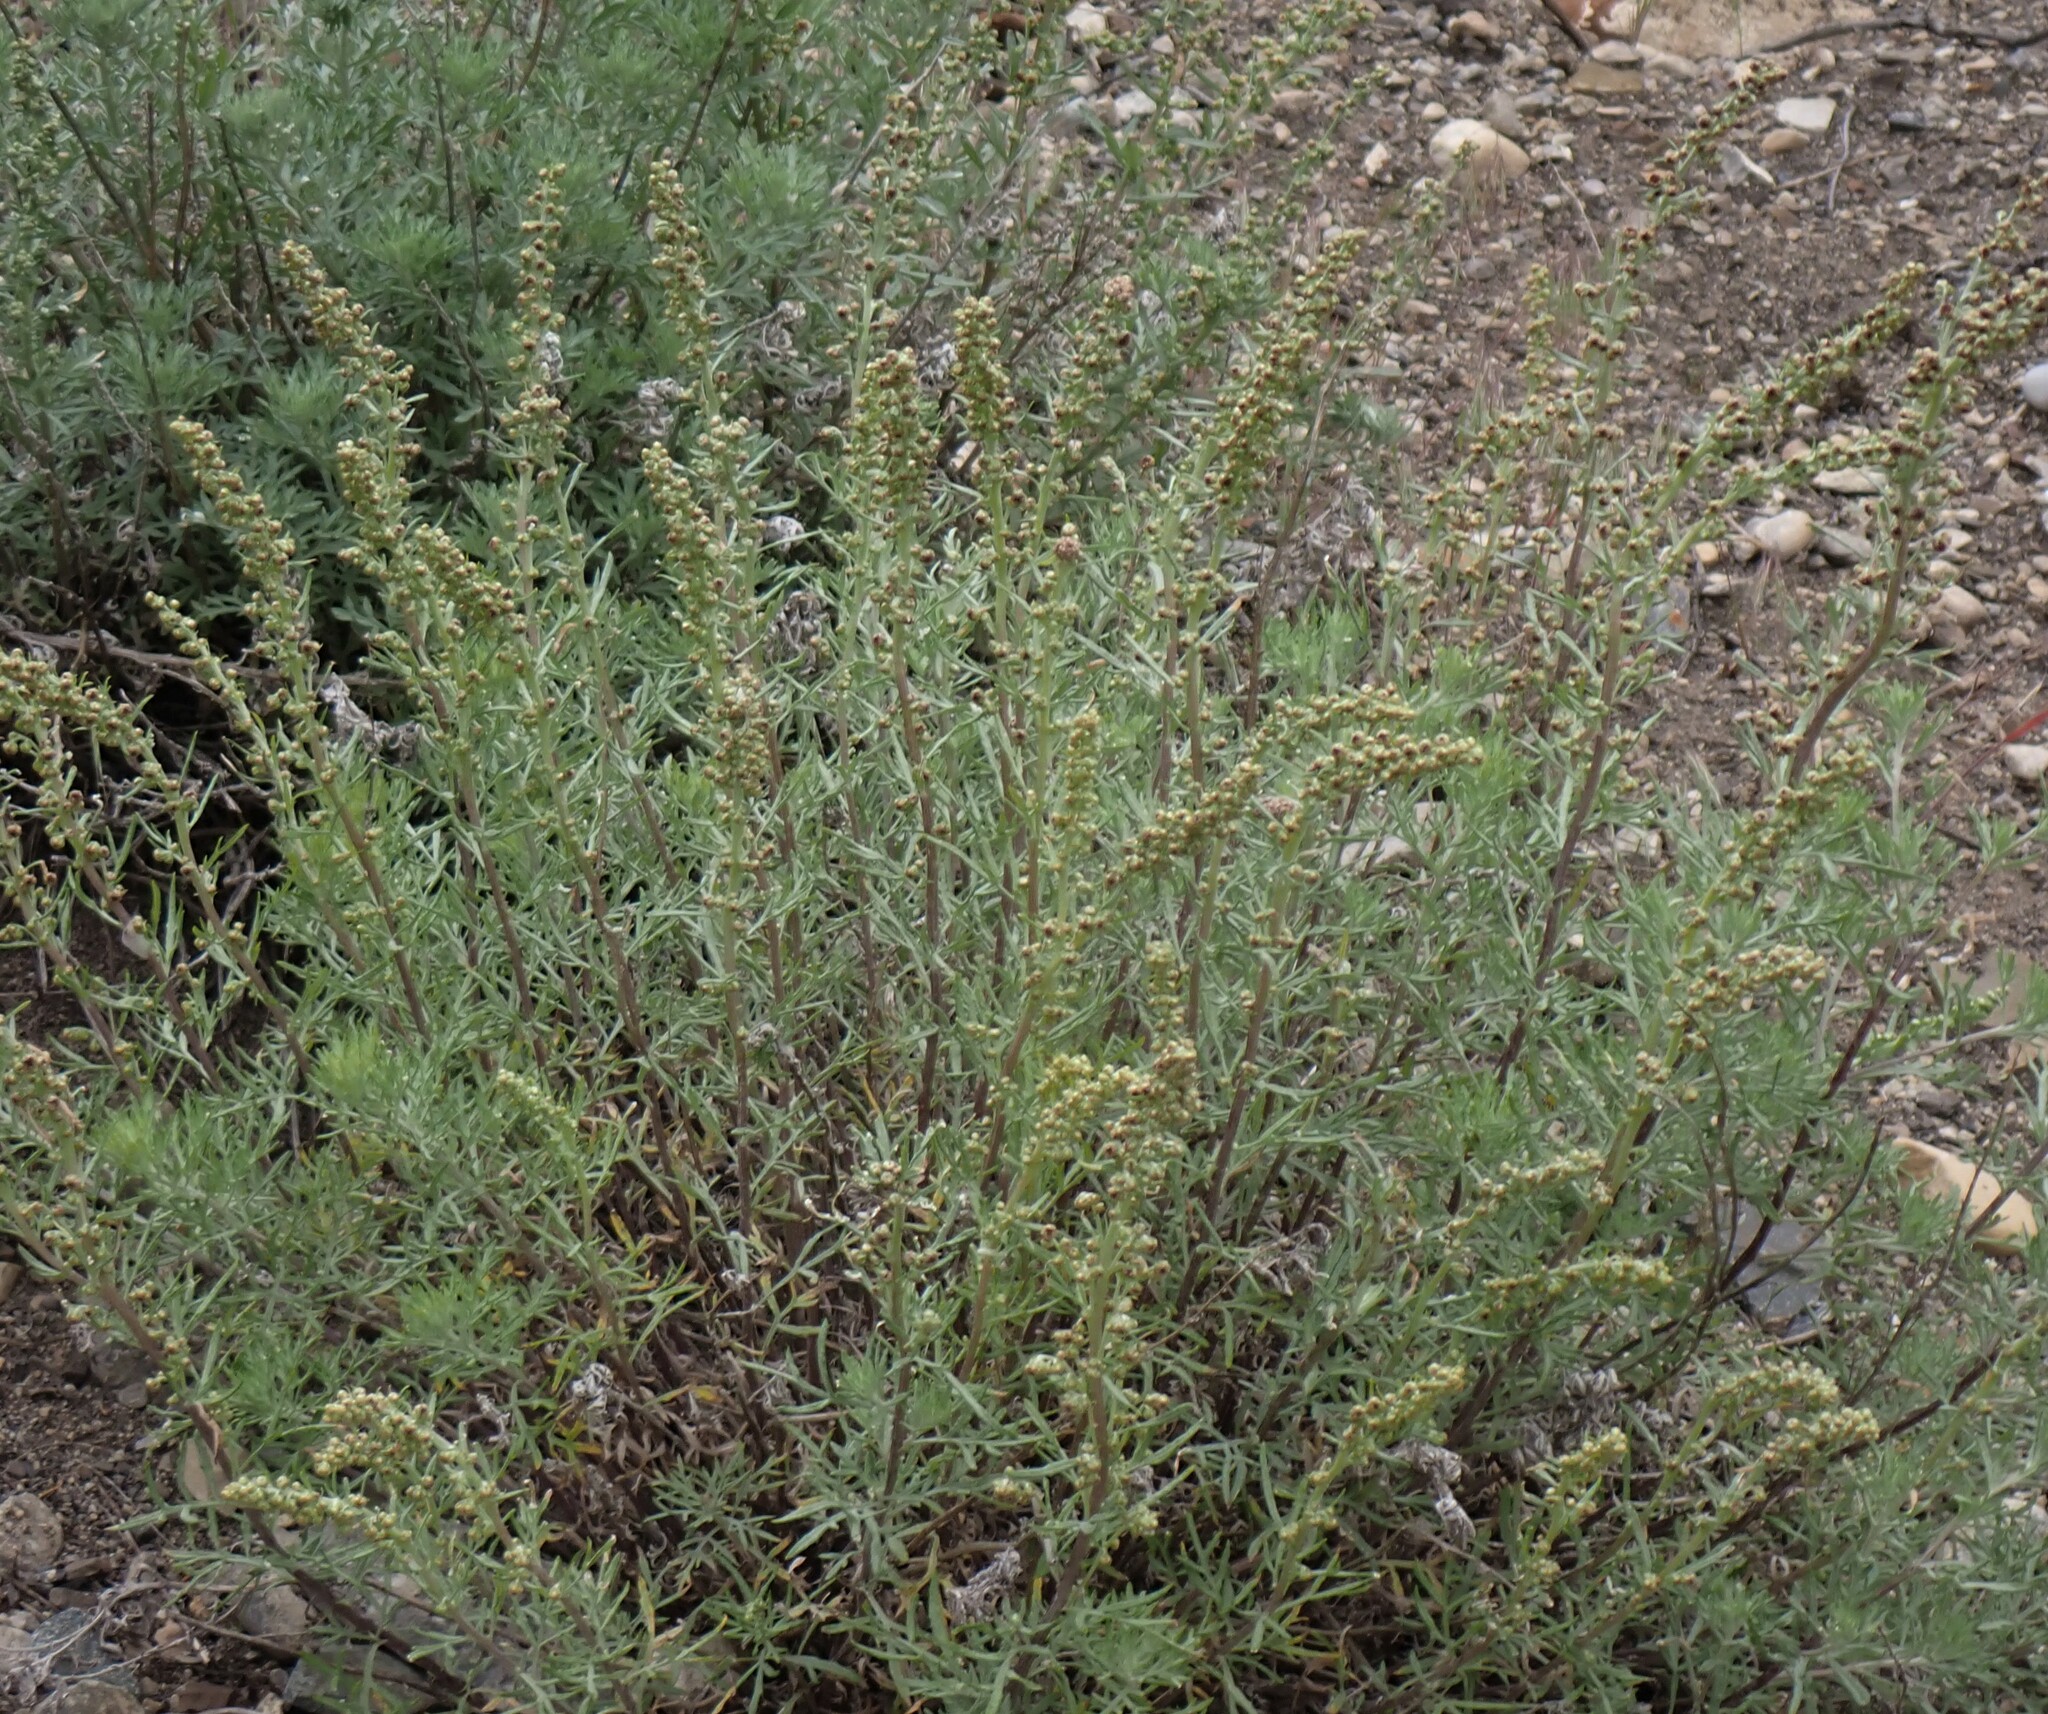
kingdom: Plantae
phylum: Tracheophyta
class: Magnoliopsida
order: Asterales
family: Asteraceae
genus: Artemisia
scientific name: Artemisia michauxiana
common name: Lemon sagewort
